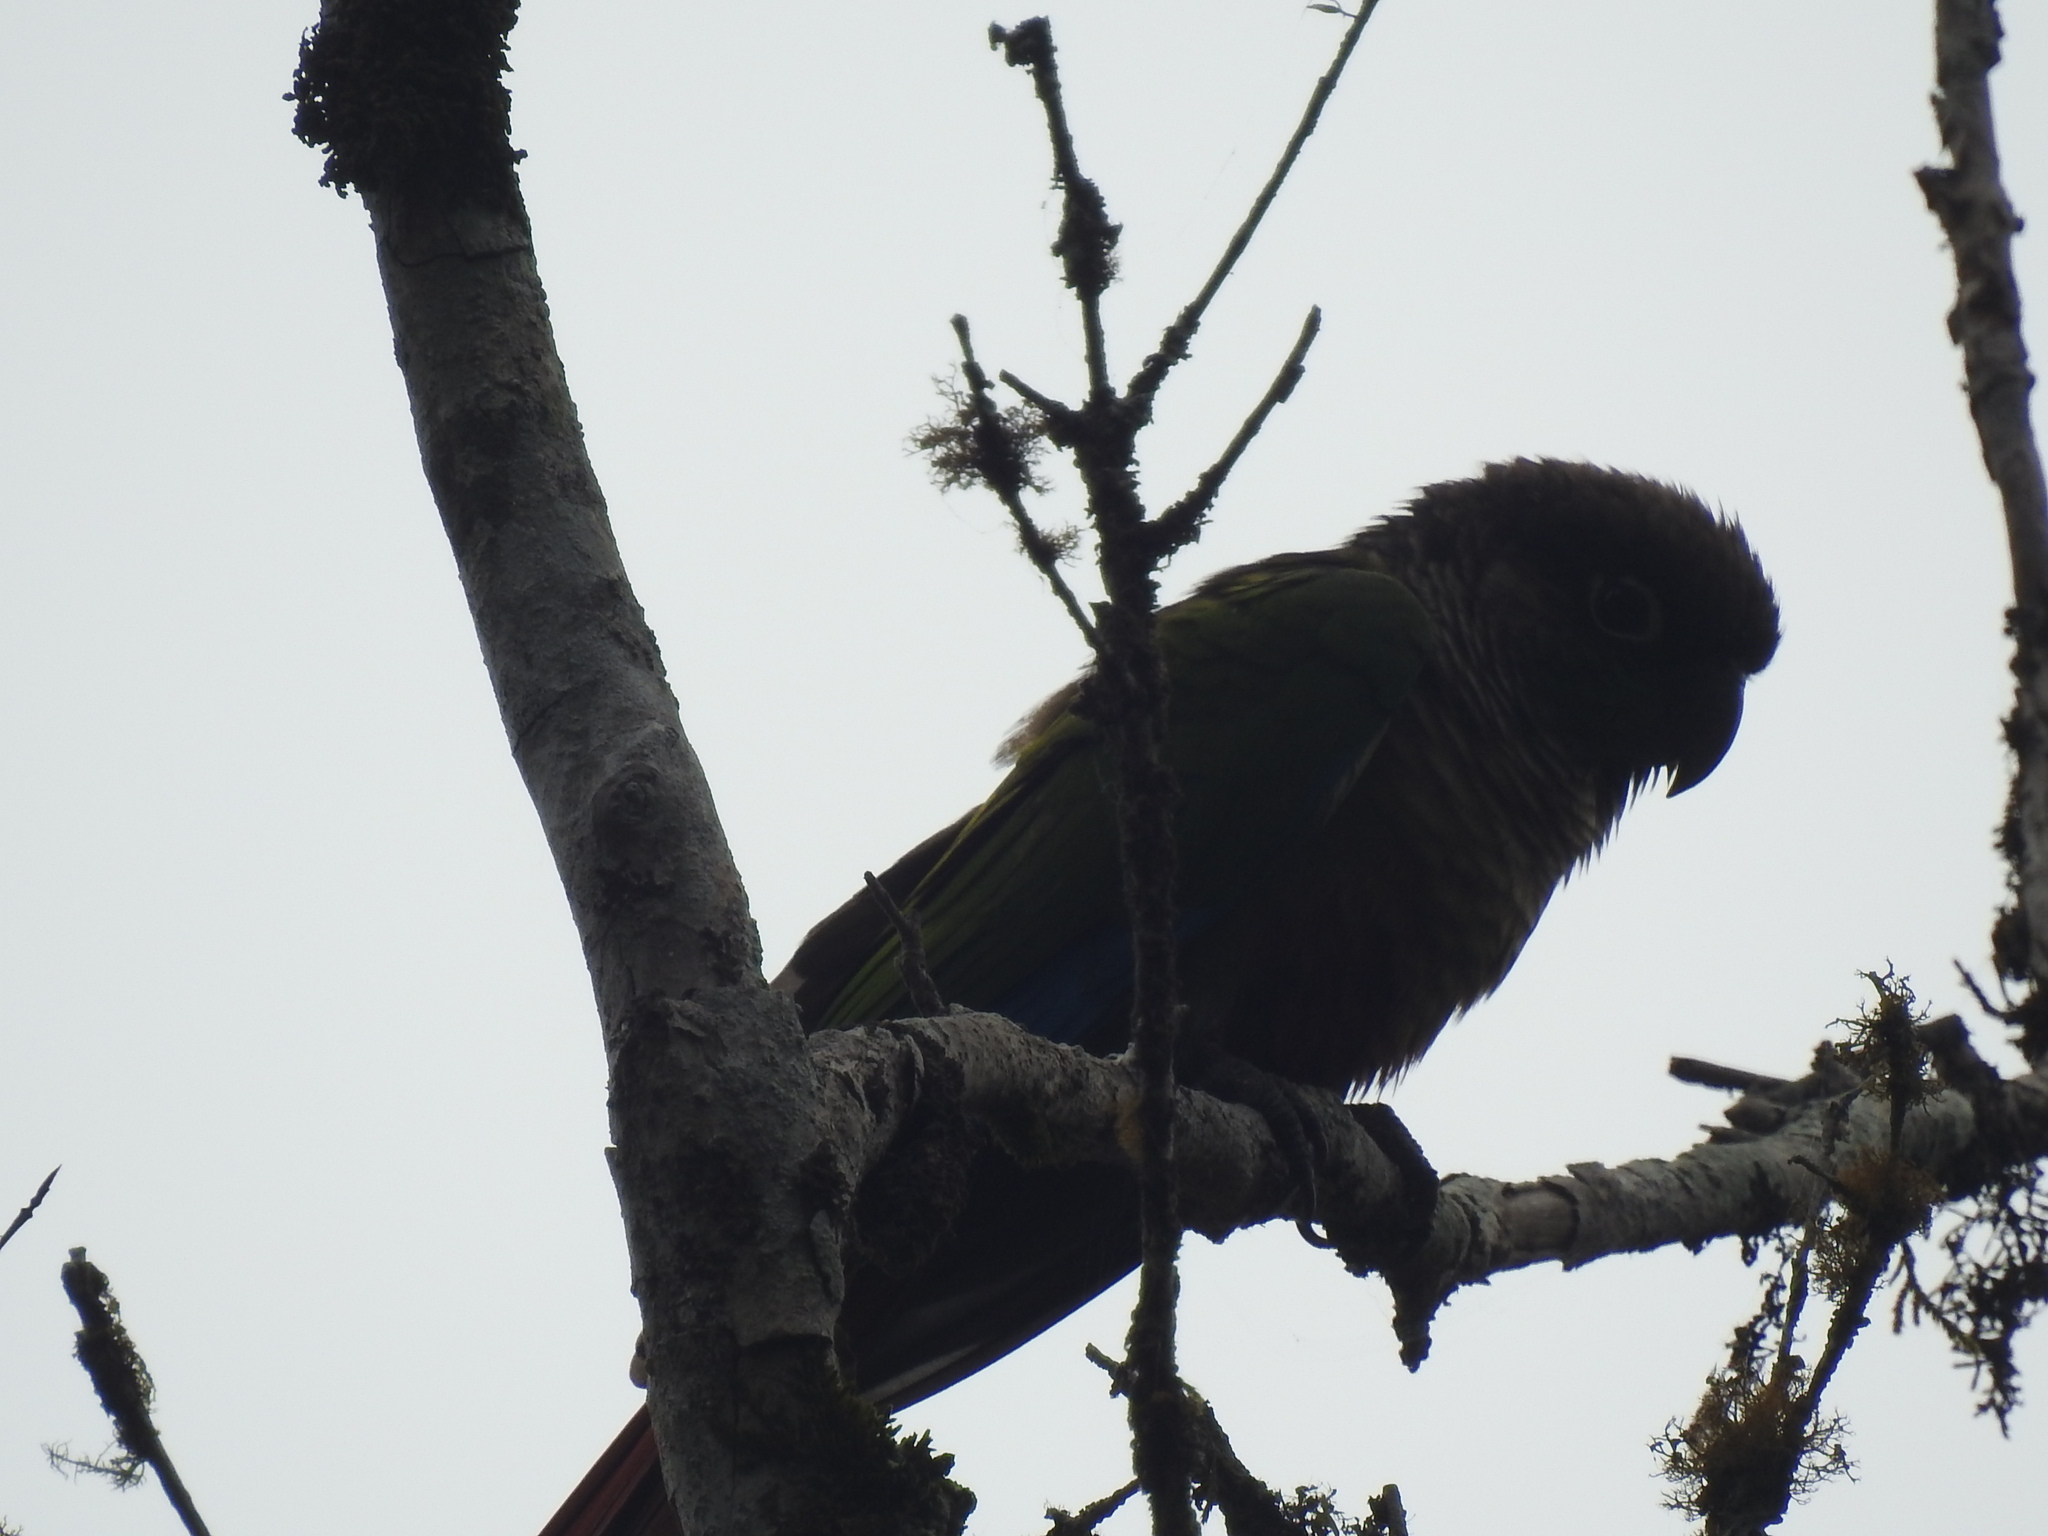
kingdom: Animalia
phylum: Chordata
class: Aves
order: Psittaciformes
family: Psittacidae
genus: Pyrrhura
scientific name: Pyrrhura molinae
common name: Green-cheeked parakeet
